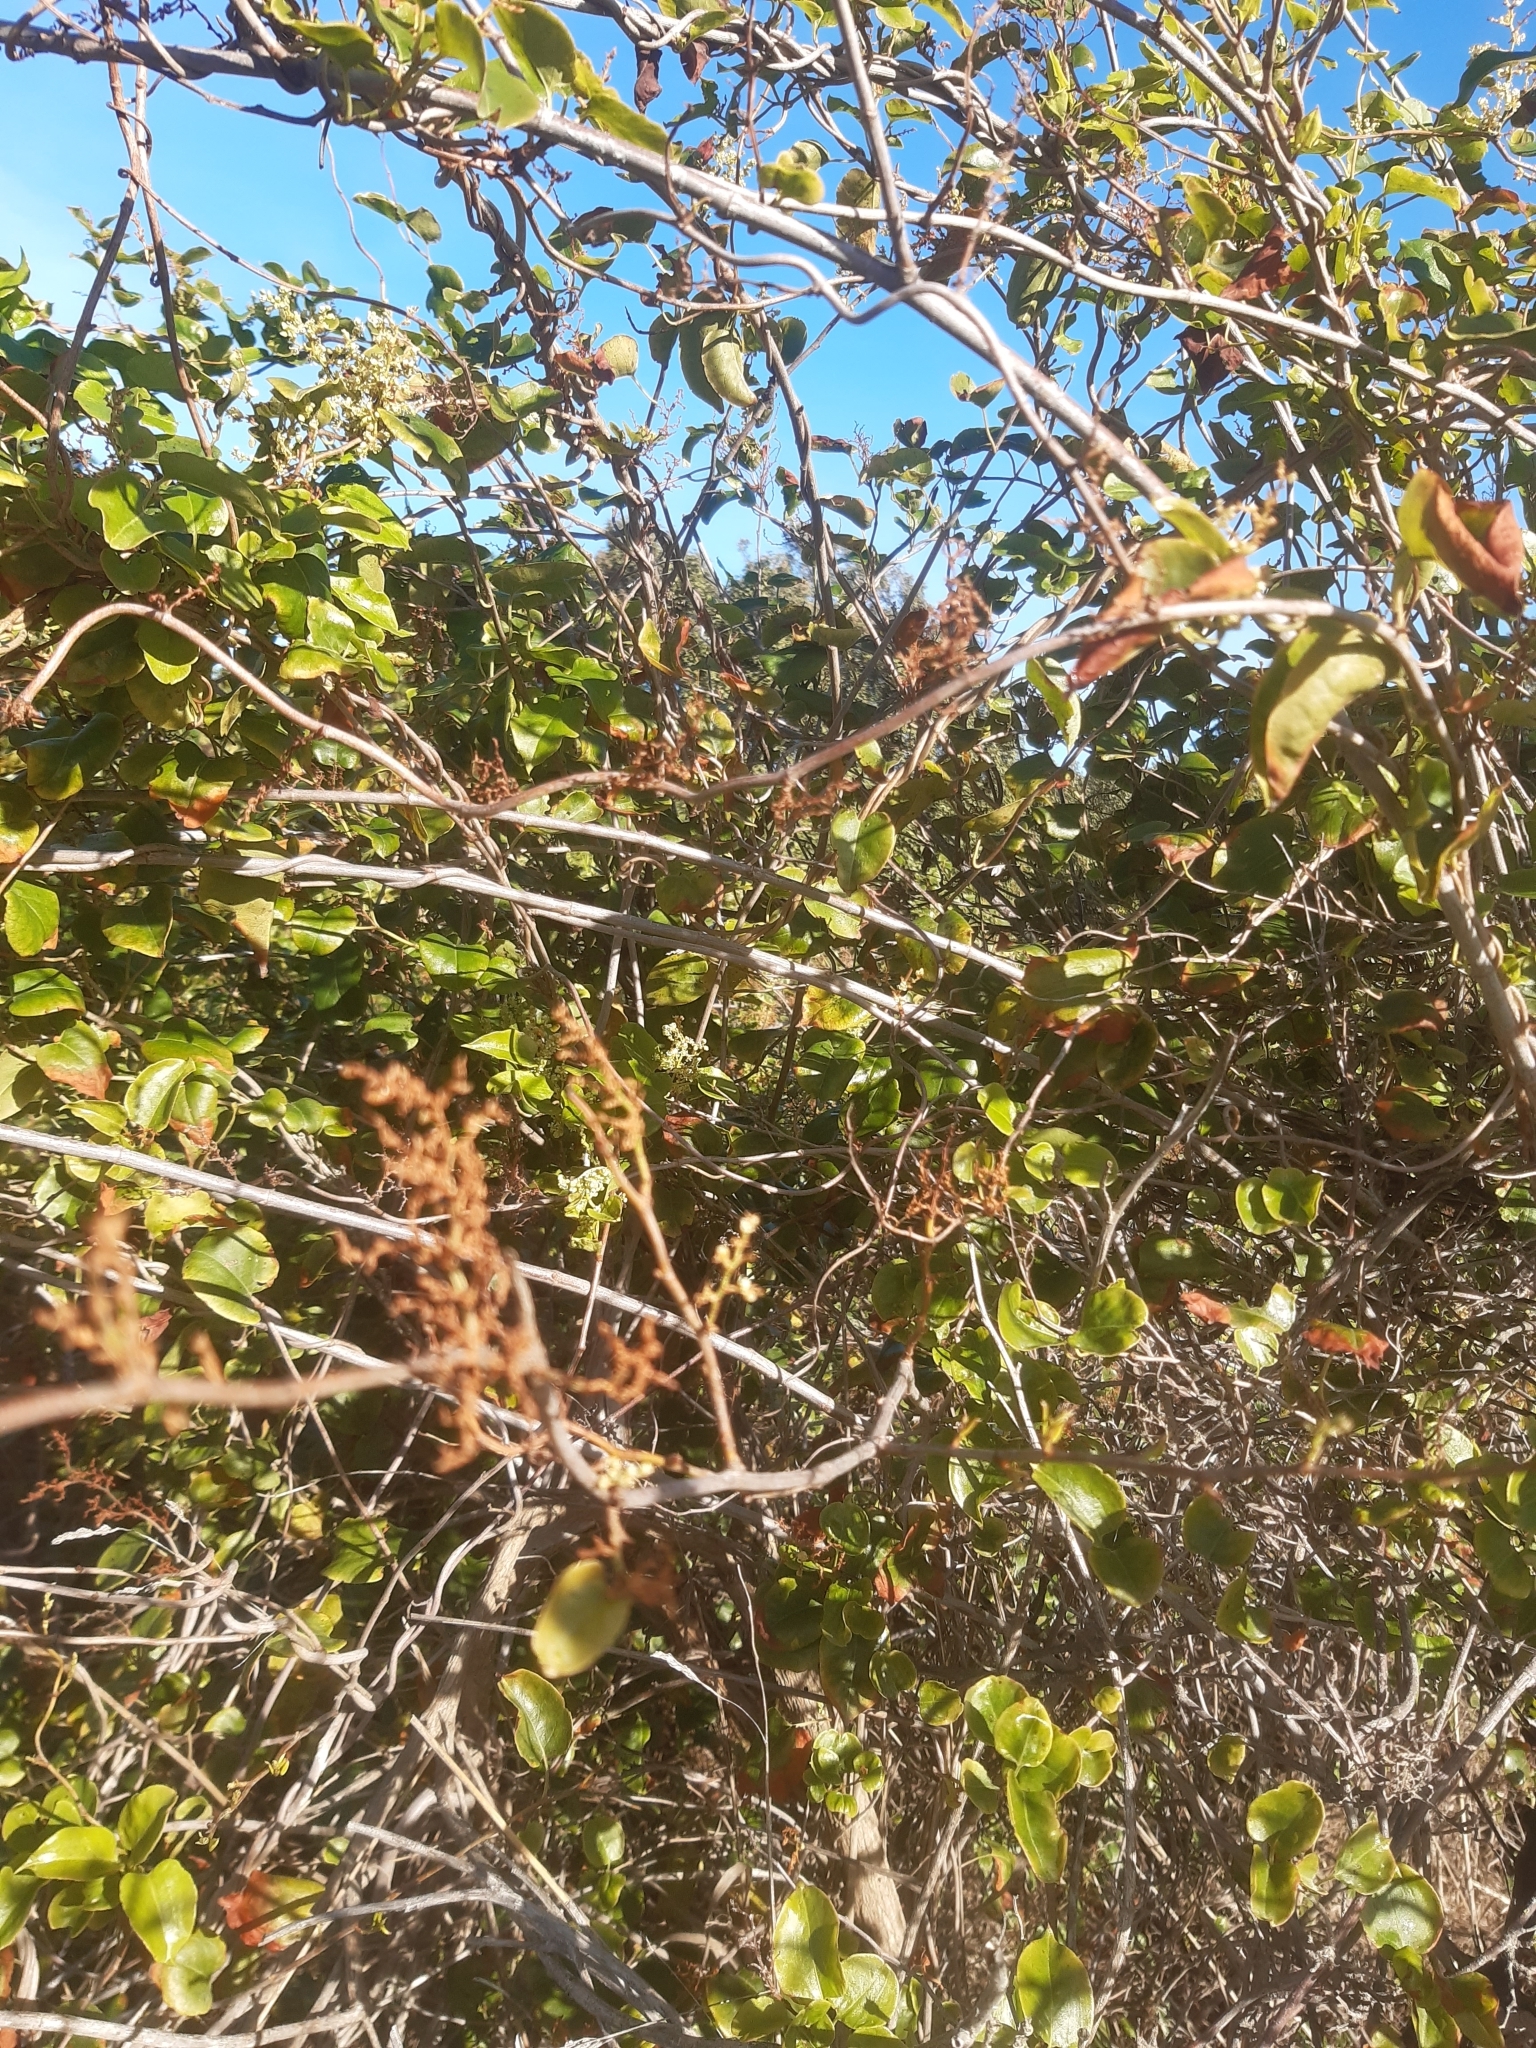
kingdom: Plantae
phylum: Tracheophyta
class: Magnoliopsida
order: Caryophyllales
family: Polygonaceae
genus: Muehlenbeckia
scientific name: Muehlenbeckia australis
